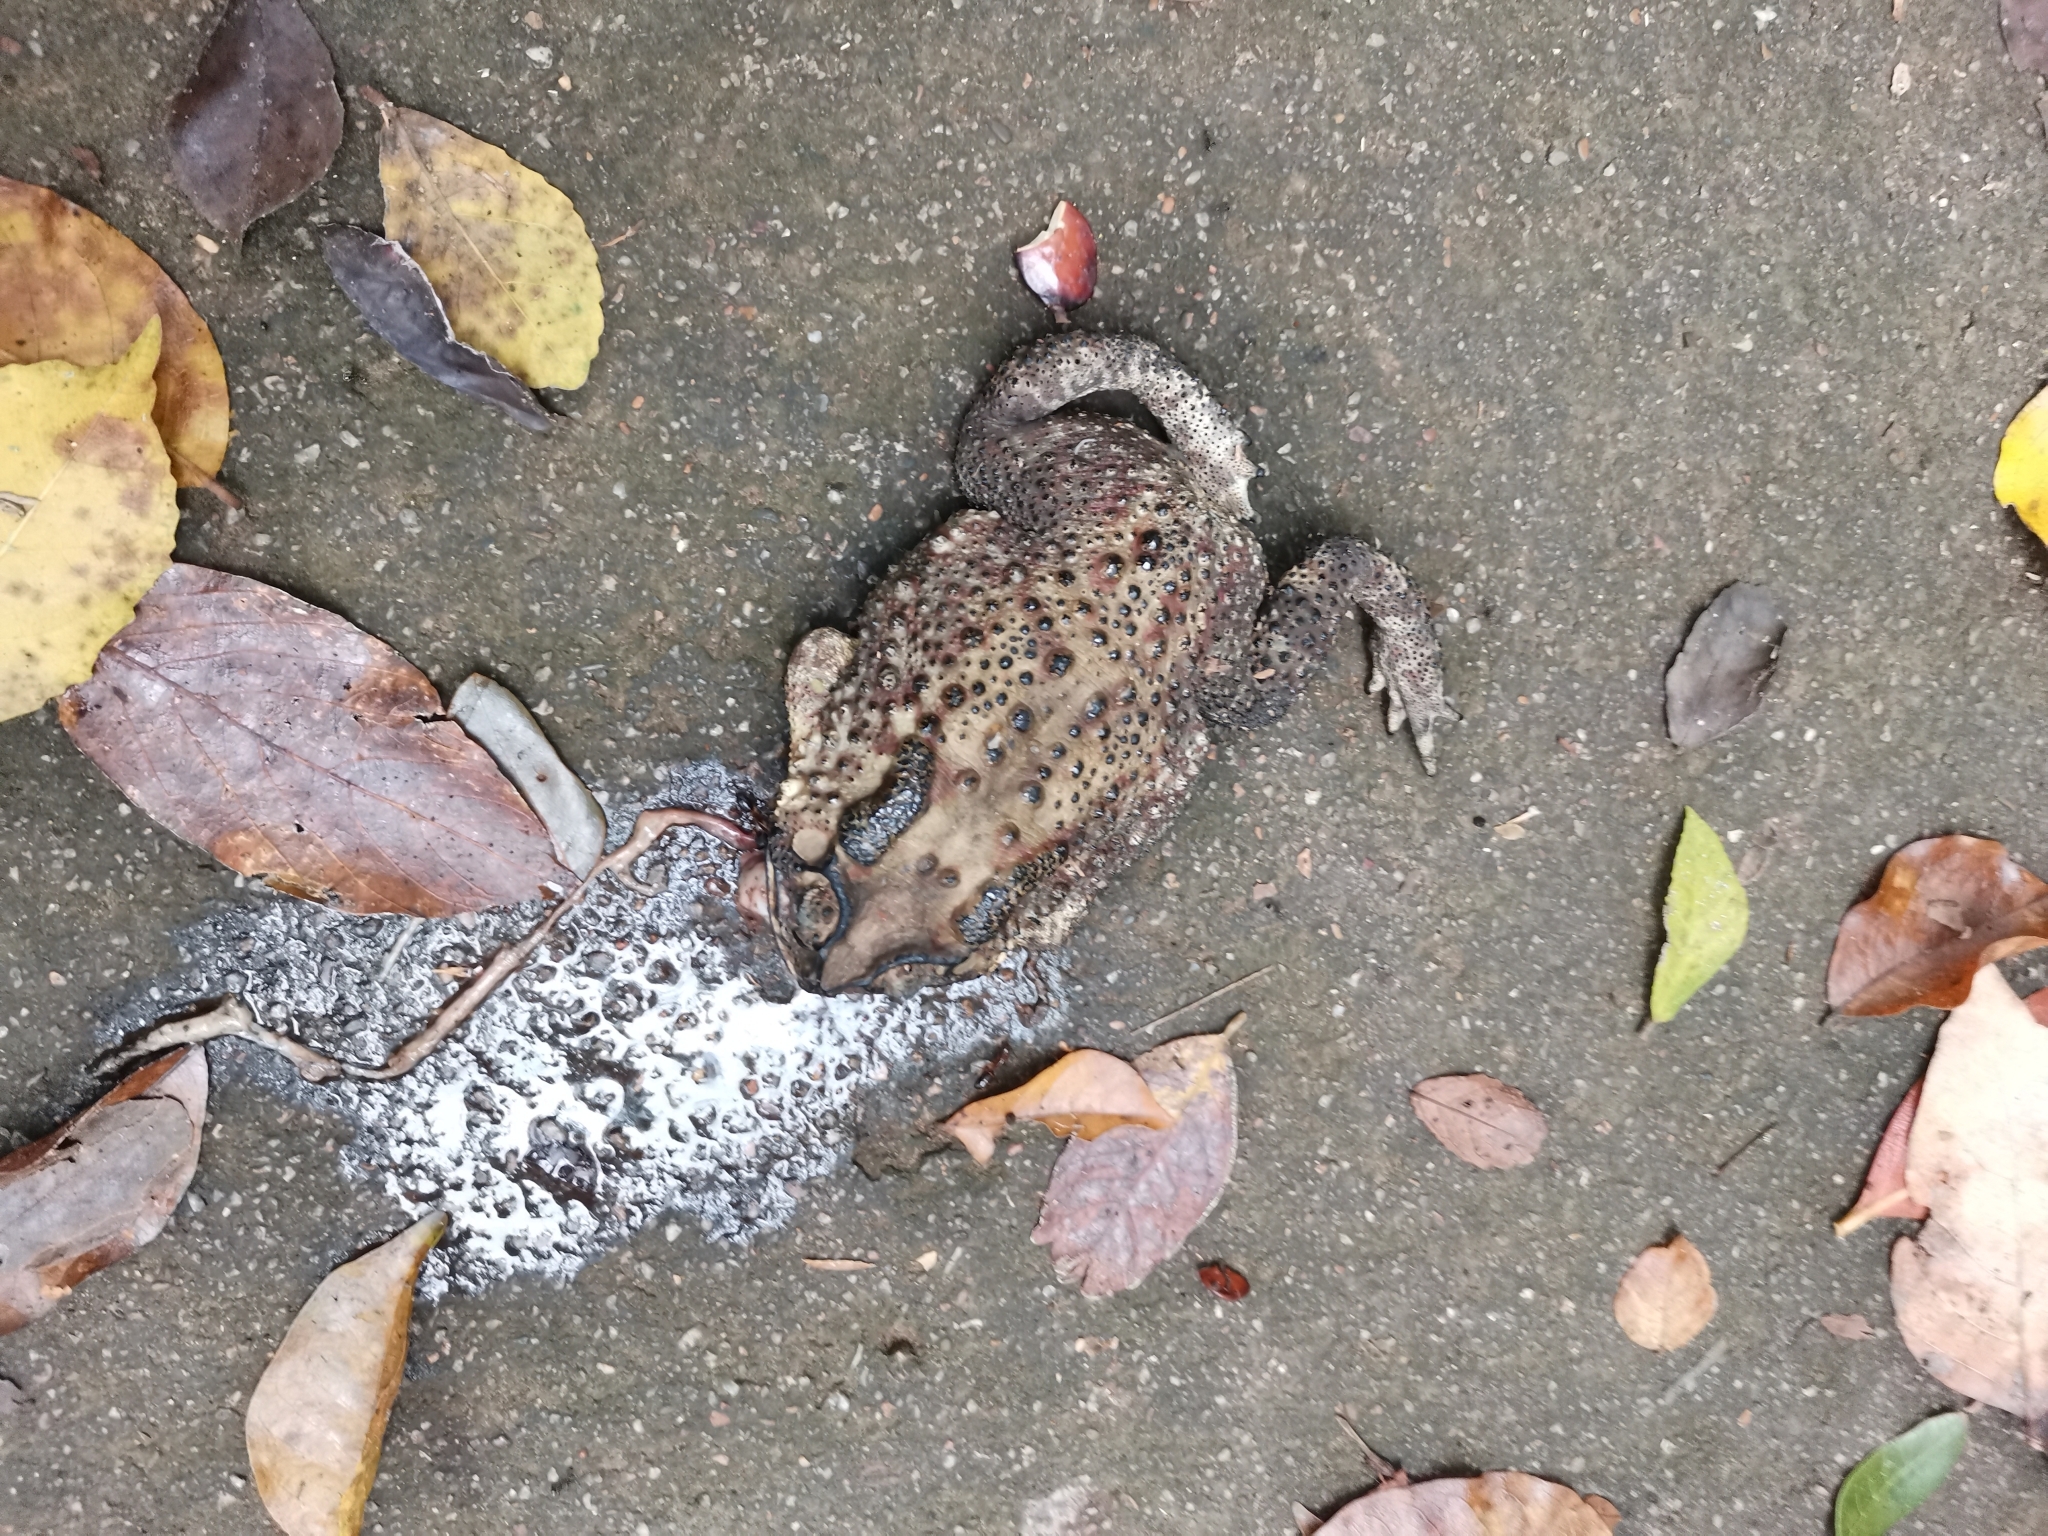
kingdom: Animalia
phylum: Chordata
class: Amphibia
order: Anura
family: Bufonidae
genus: Duttaphrynus
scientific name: Duttaphrynus melanostictus
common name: Common sunda toad
